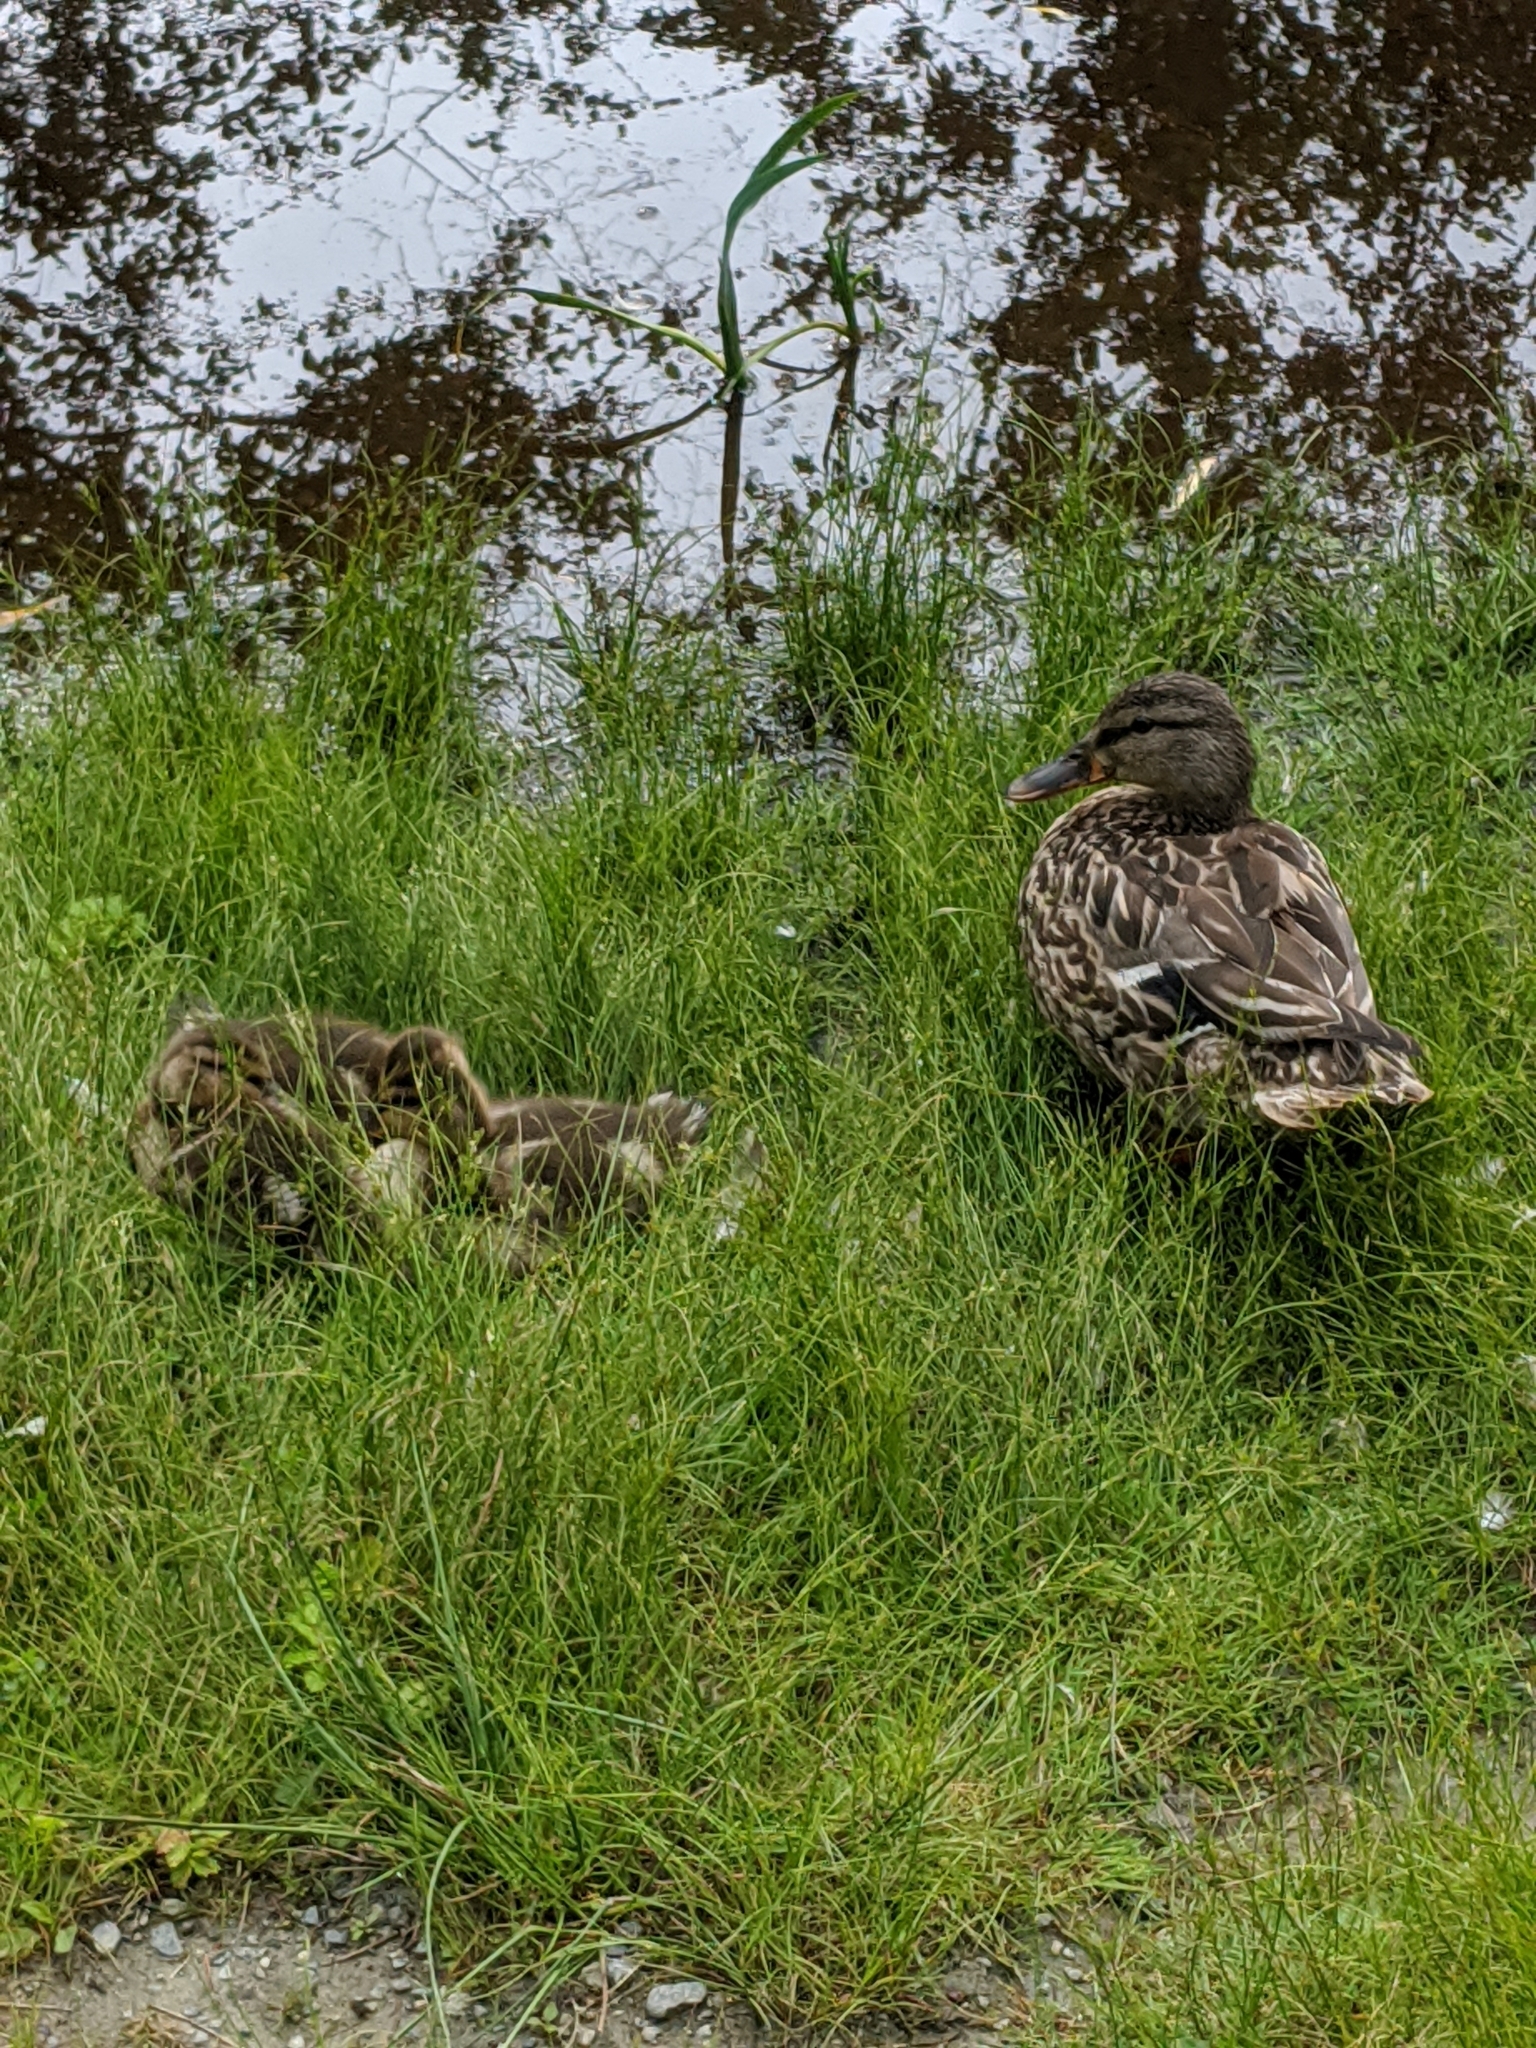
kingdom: Animalia
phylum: Chordata
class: Aves
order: Anseriformes
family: Anatidae
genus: Anas
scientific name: Anas platyrhynchos
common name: Mallard
